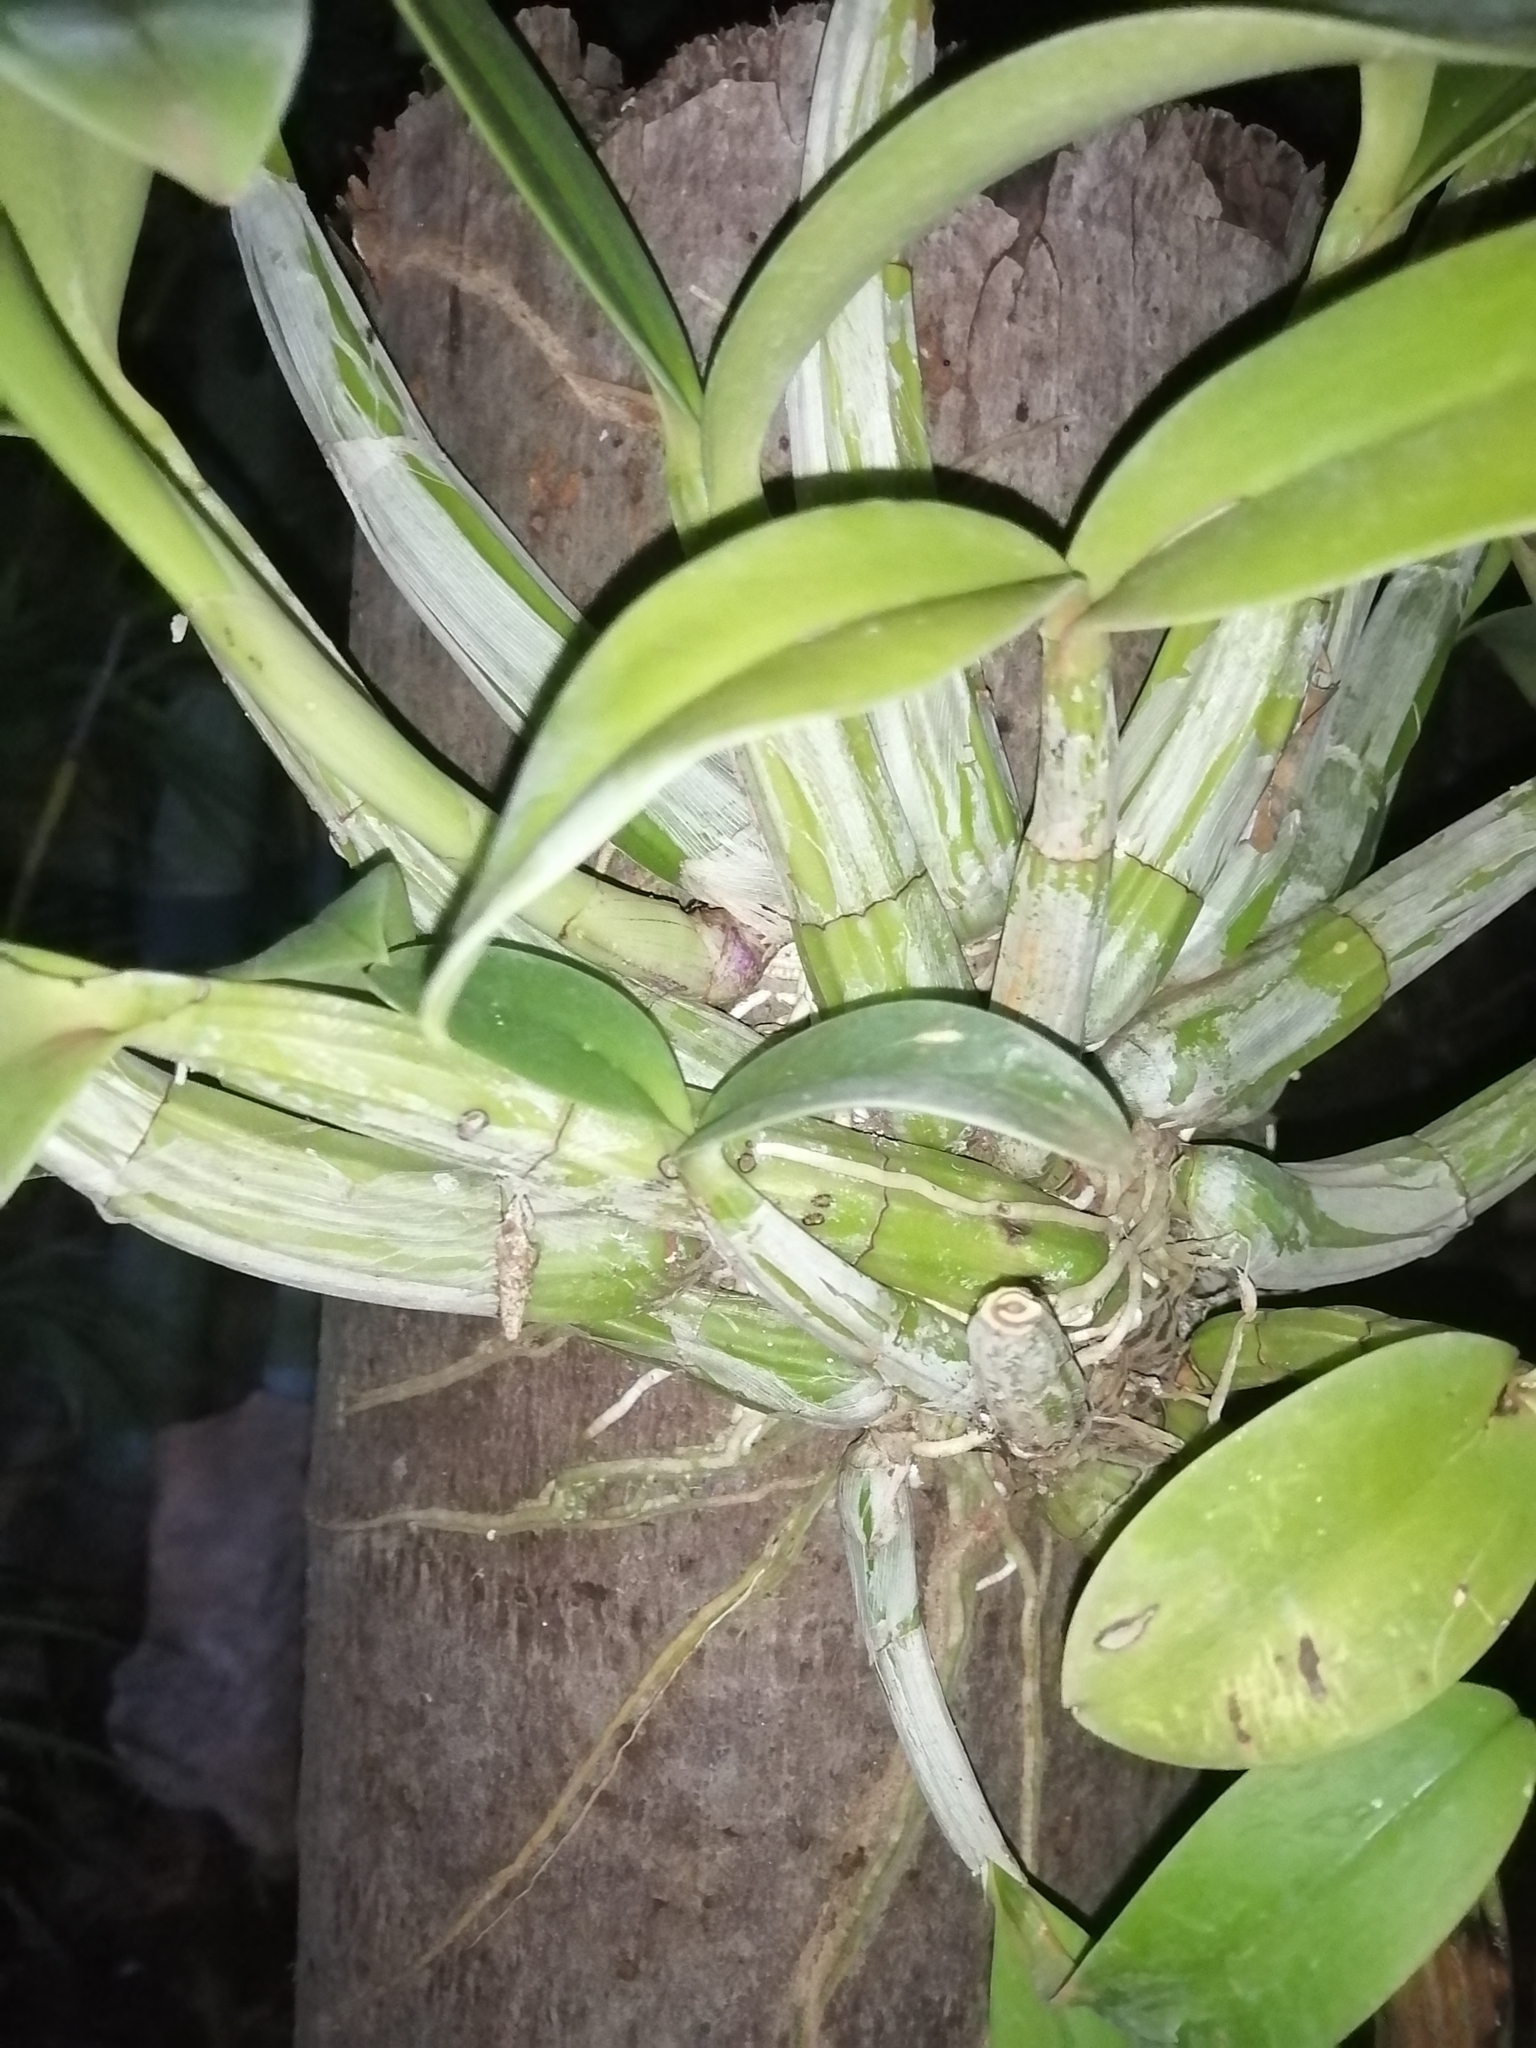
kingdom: Plantae
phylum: Tracheophyta
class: Liliopsida
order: Asparagales
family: Orchidaceae
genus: Myrmecophila
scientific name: Myrmecophila christinae
